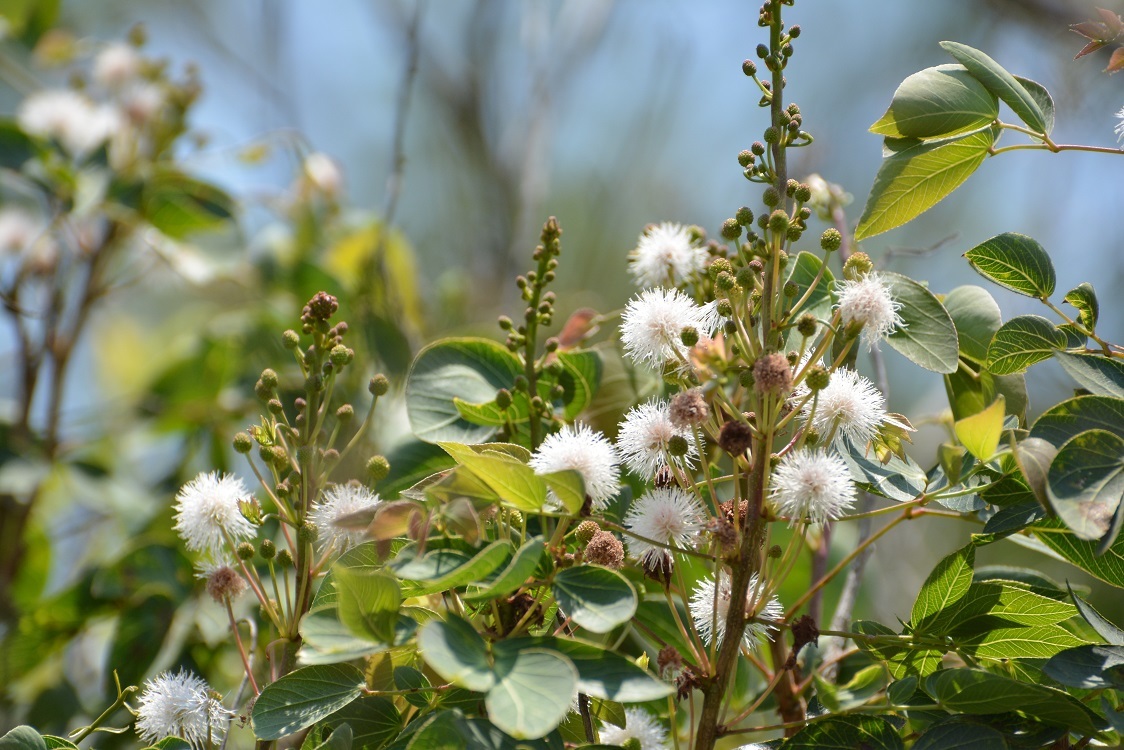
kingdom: Plantae
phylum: Tracheophyta
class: Magnoliopsida
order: Fabales
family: Fabaceae
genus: Mimosa
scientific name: Mimosa lactiflua
